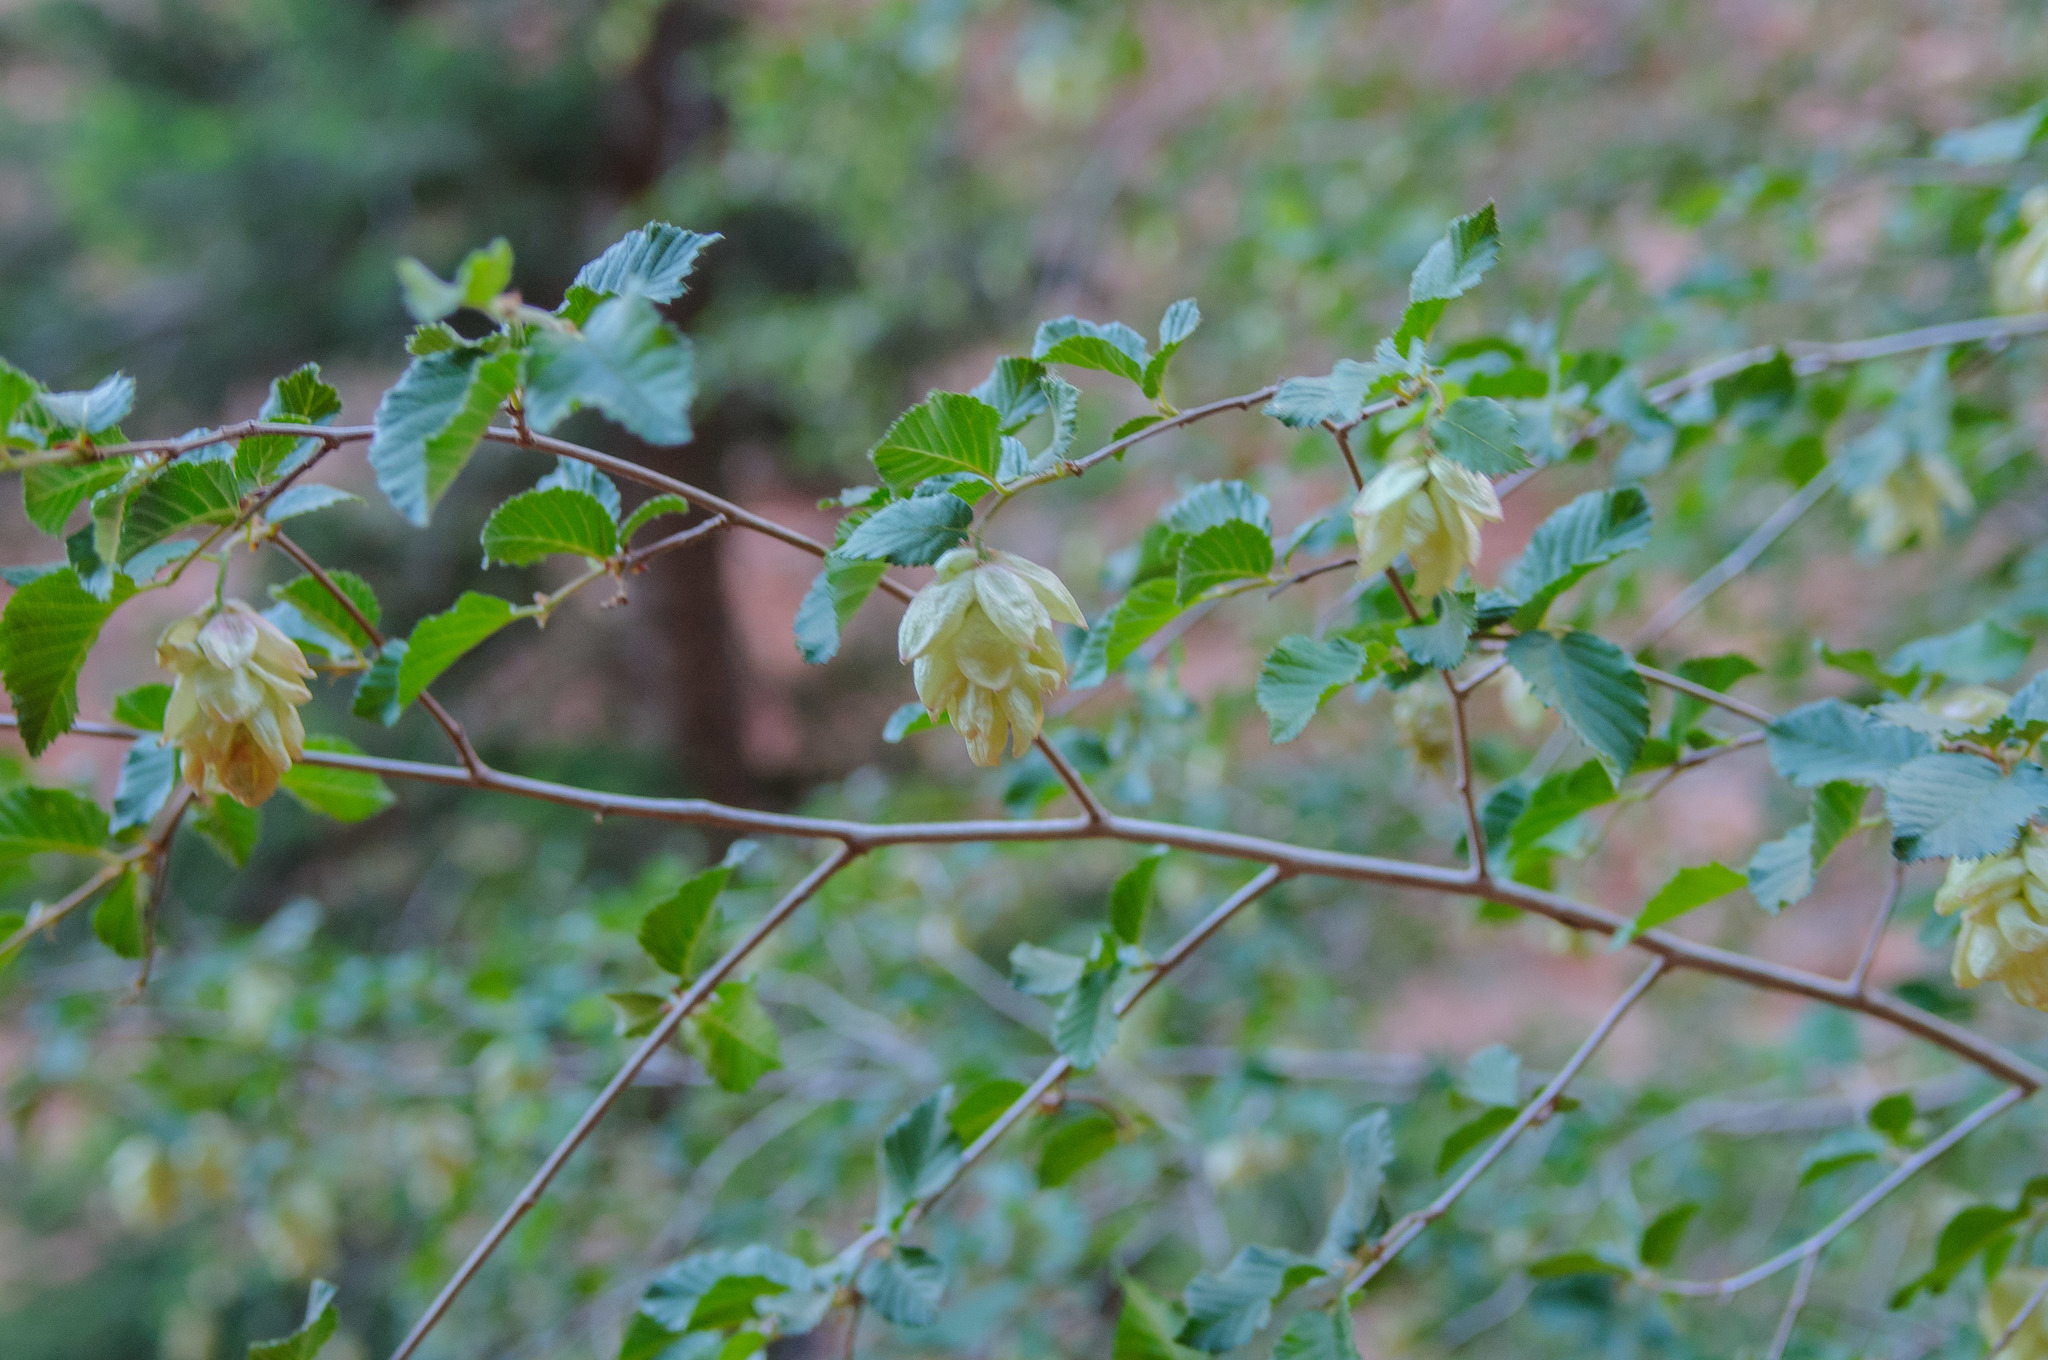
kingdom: Plantae
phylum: Tracheophyta
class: Magnoliopsida
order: Fagales
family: Betulaceae
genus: Ostrya
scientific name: Ostrya knowltonii
